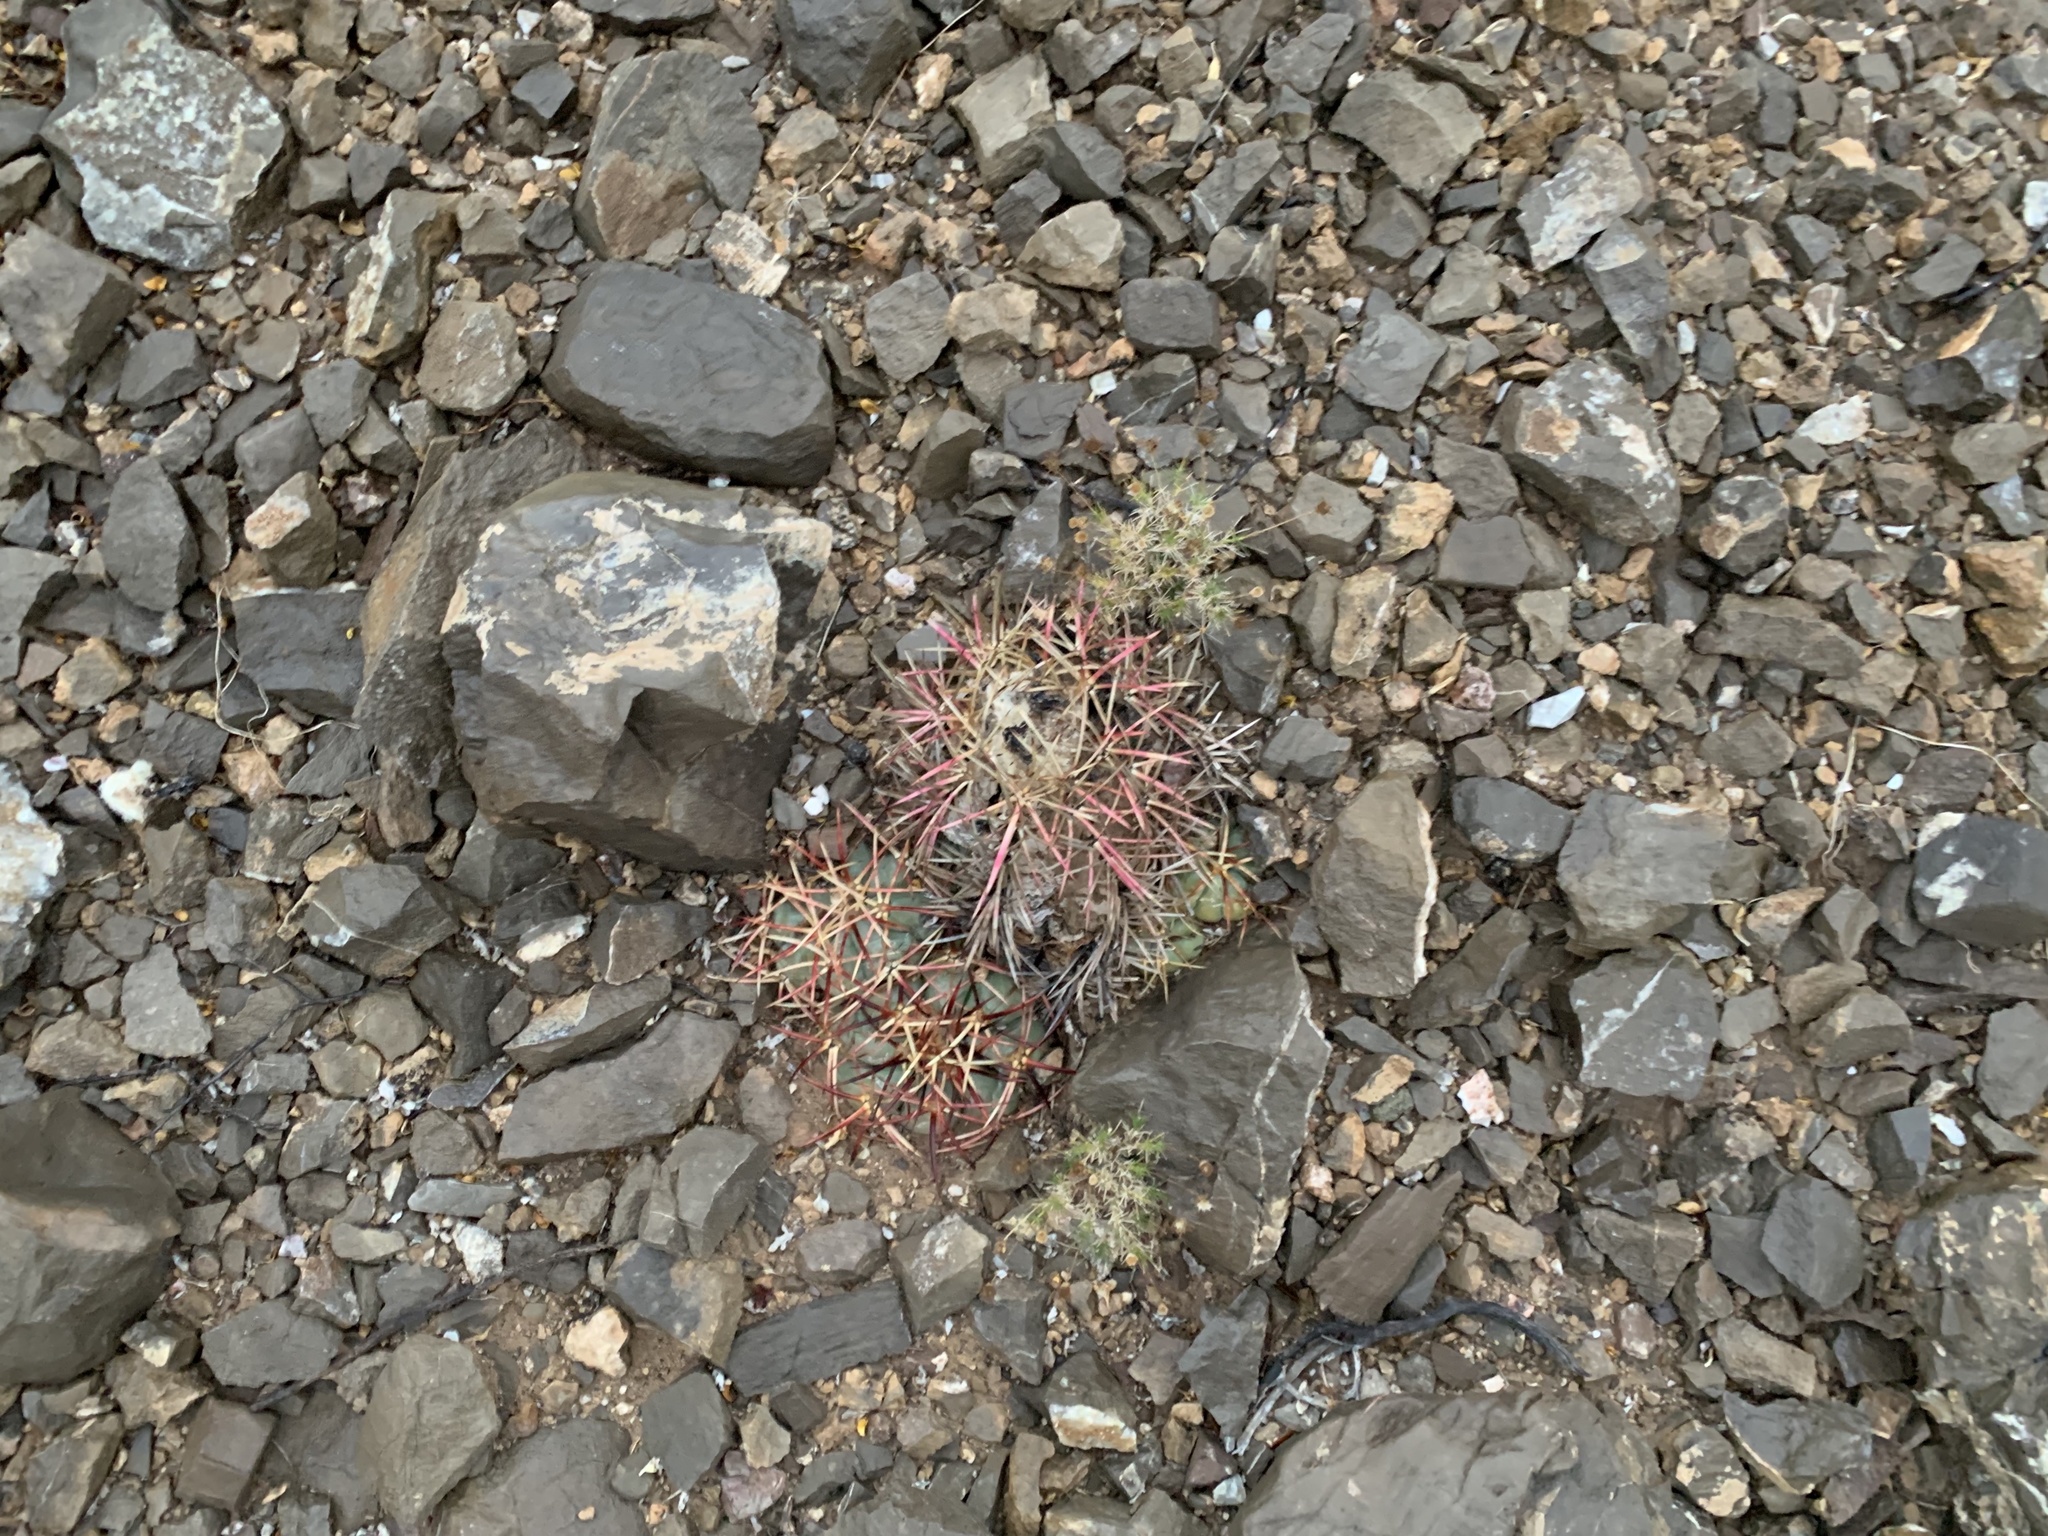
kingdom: Plantae
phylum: Tracheophyta
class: Magnoliopsida
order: Caryophyllales
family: Cactaceae
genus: Echinocactus
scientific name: Echinocactus horizonthalonius
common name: Devilshead
